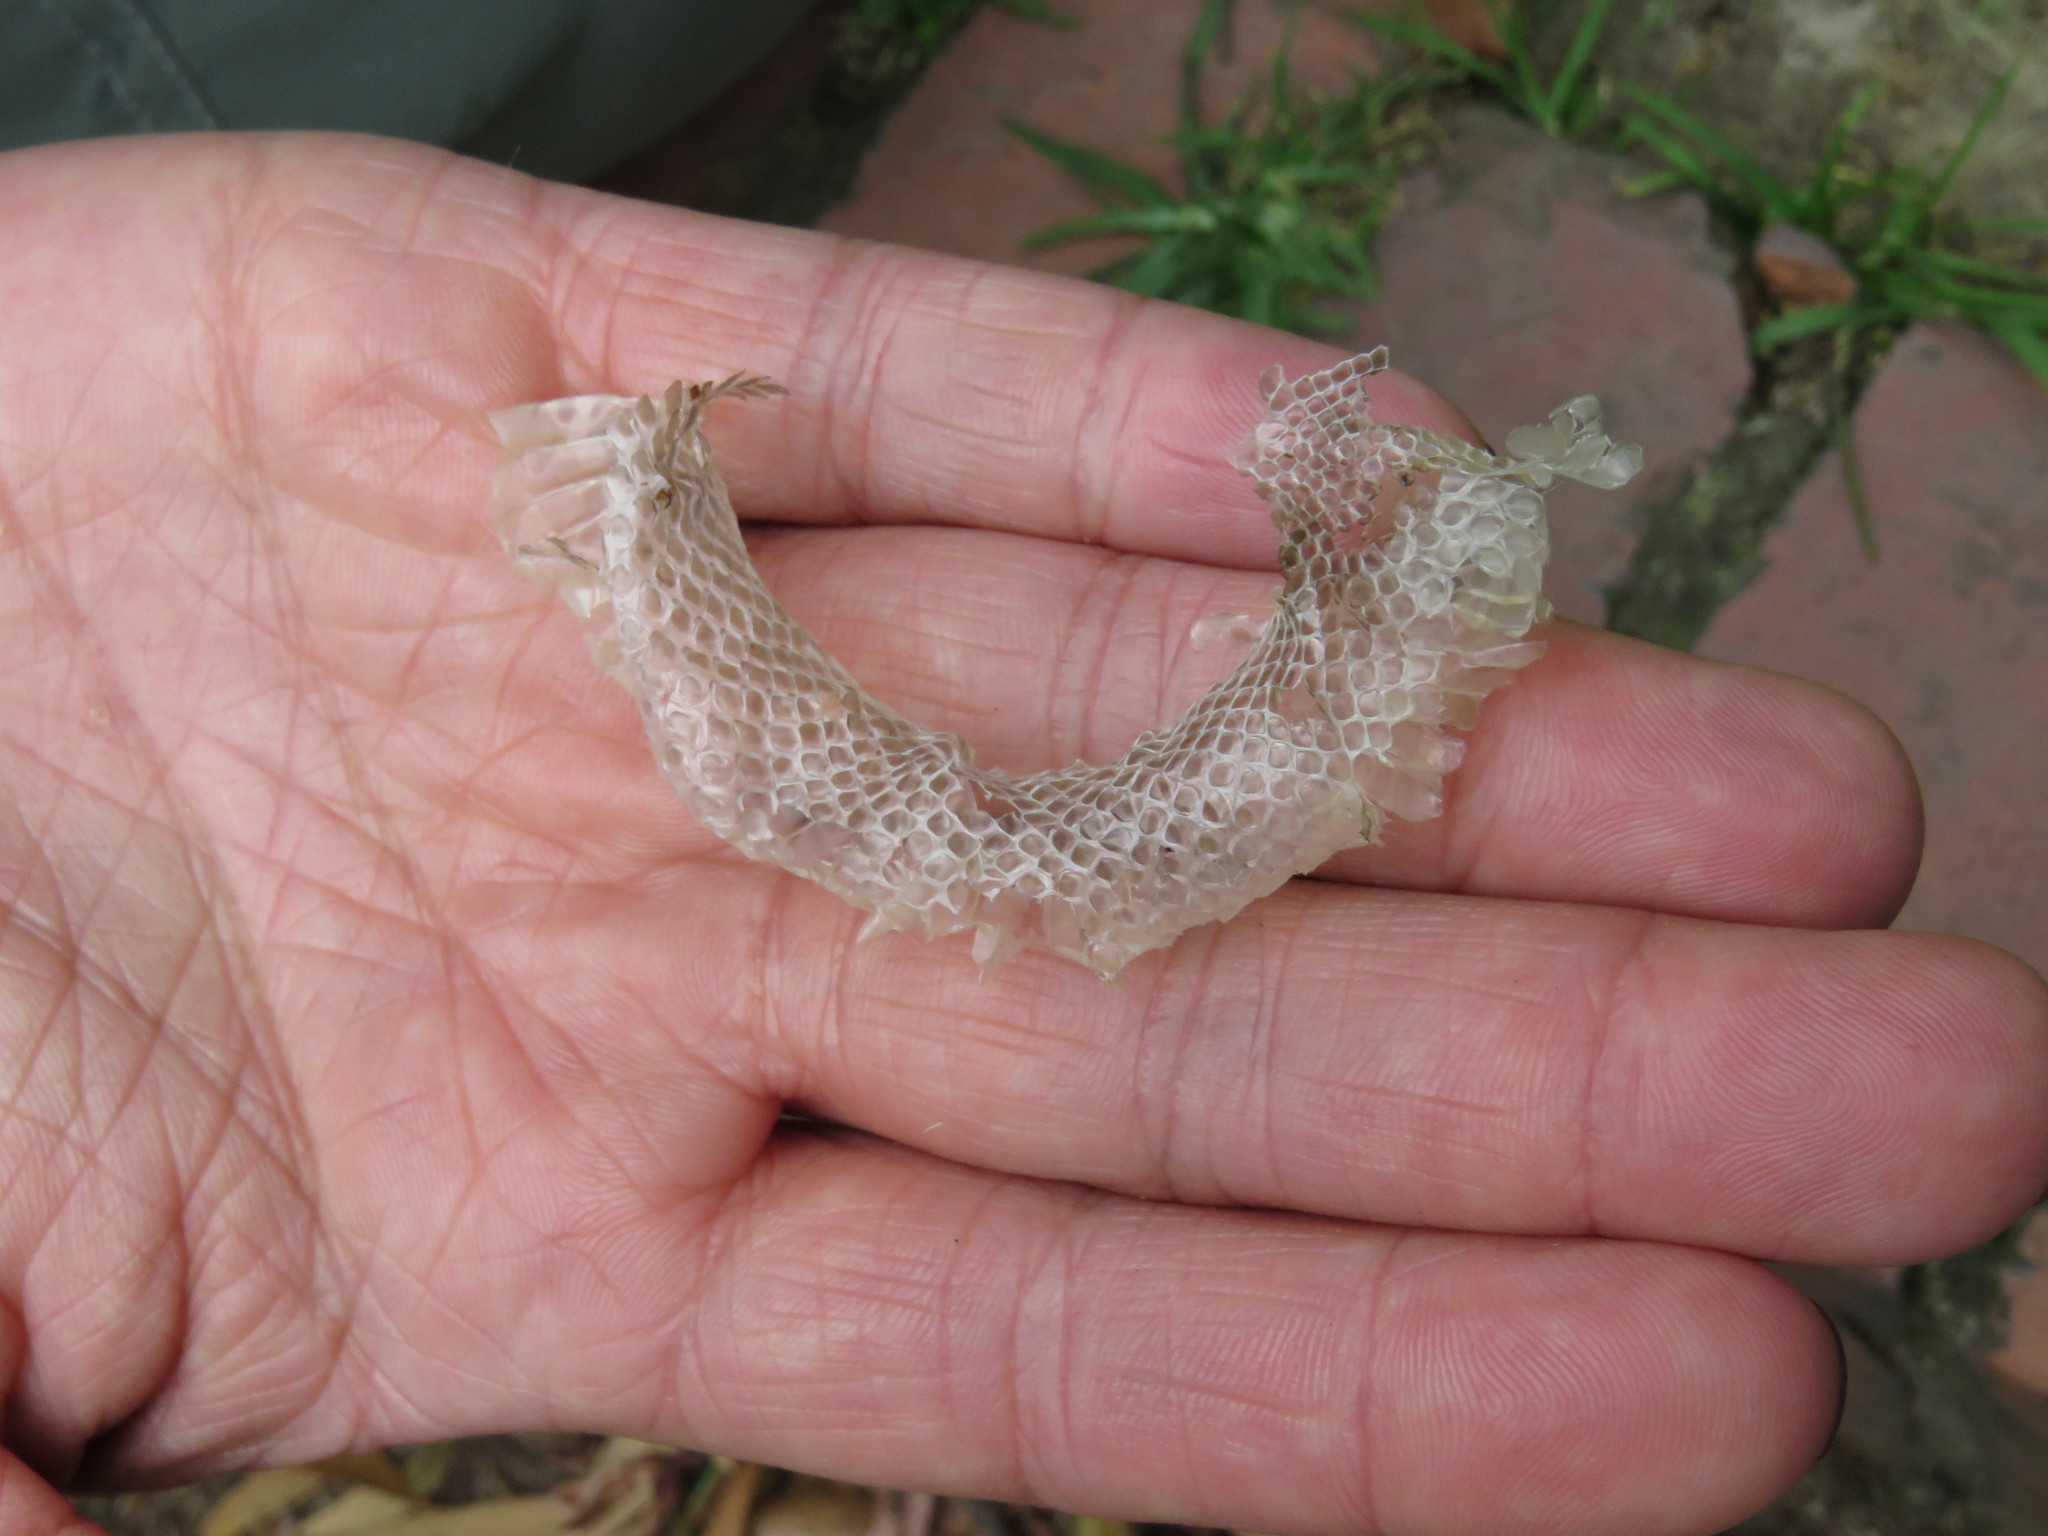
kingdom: Animalia
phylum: Chordata
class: Squamata
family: Colubridae
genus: Atractus
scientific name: Atractus crassicaudatus
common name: Thickhead ground snake
